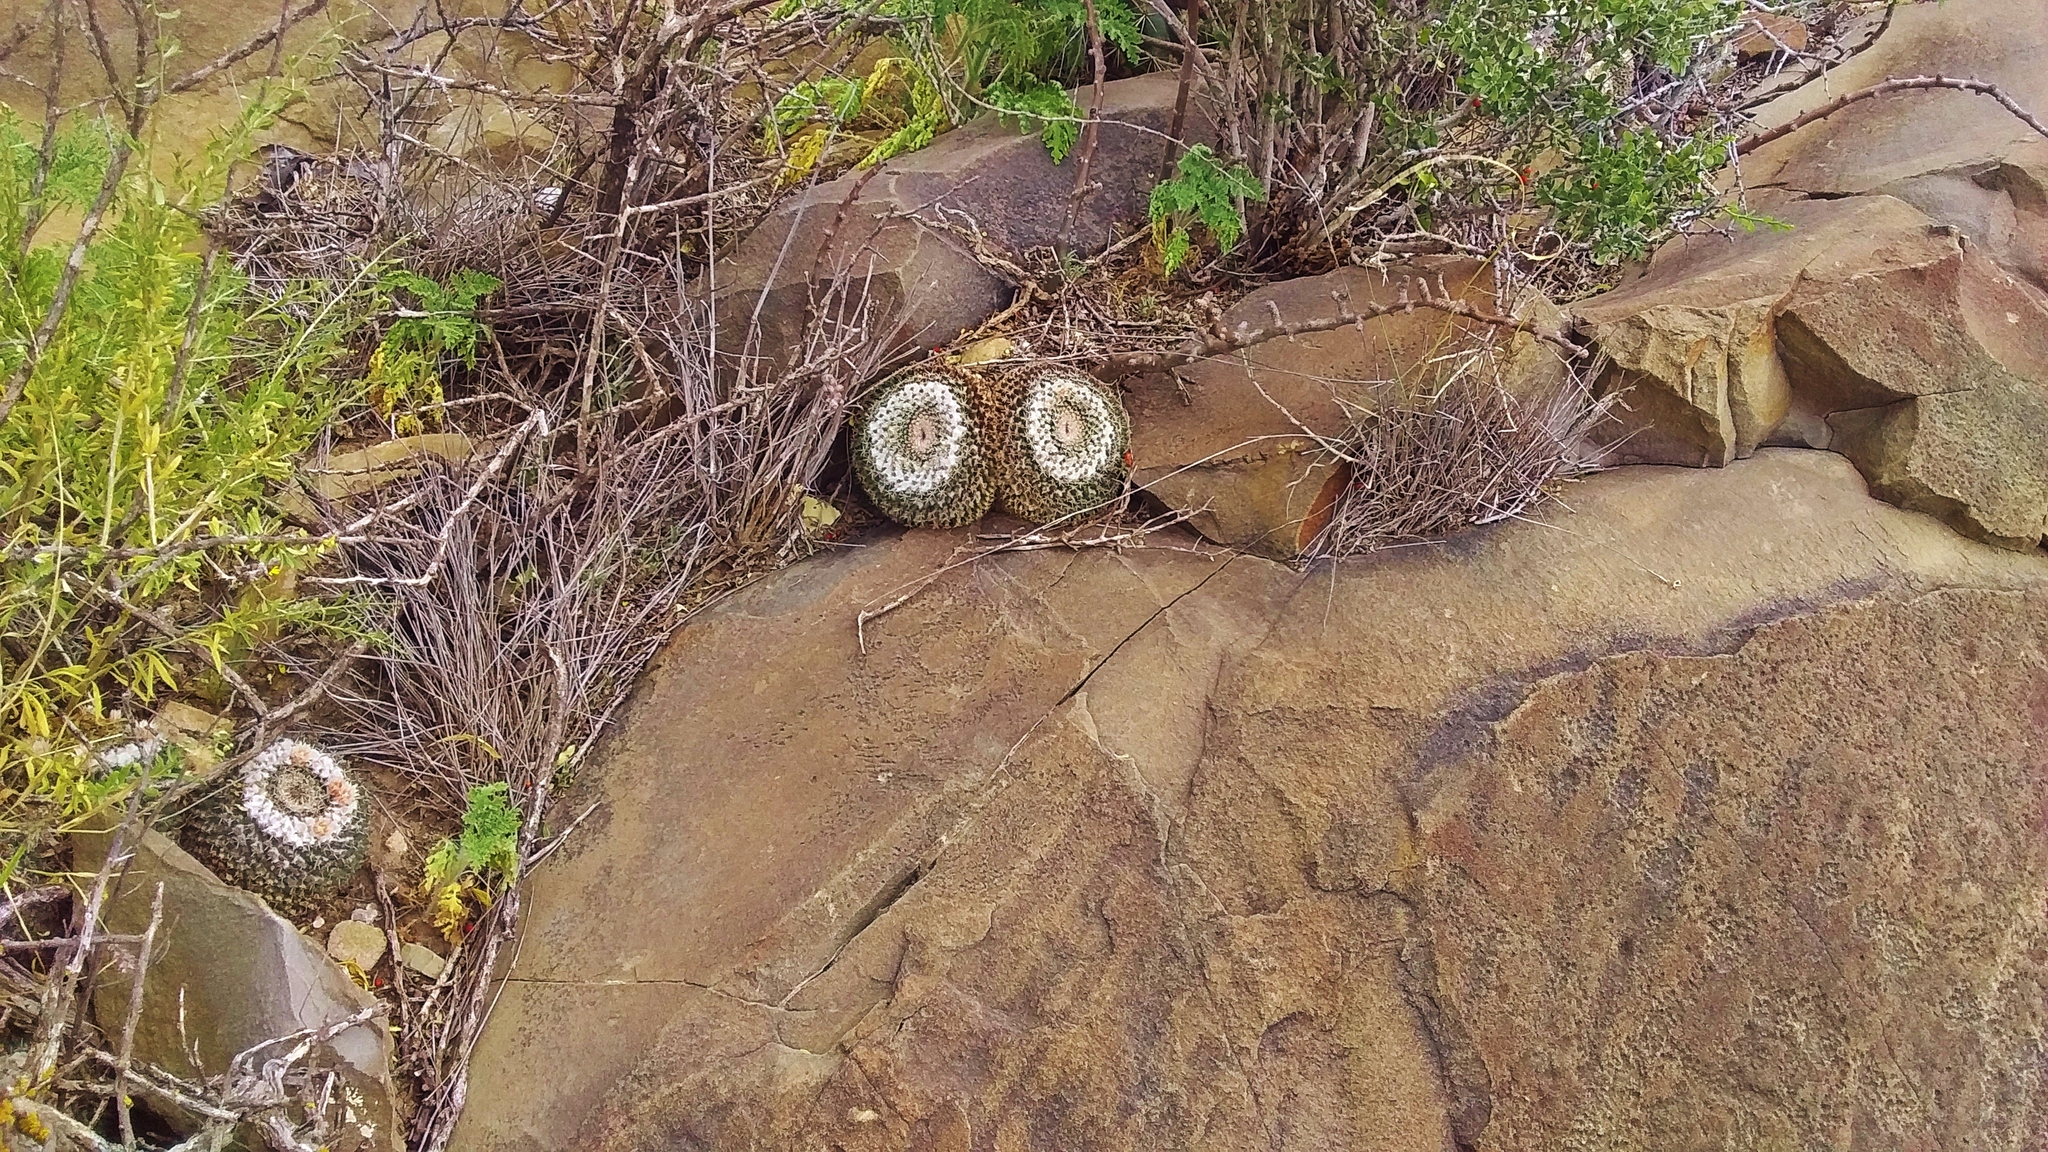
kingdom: Plantae
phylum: Tracheophyta
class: Magnoliopsida
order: Caryophyllales
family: Cactaceae
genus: Mammillaria
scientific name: Mammillaria formosa
